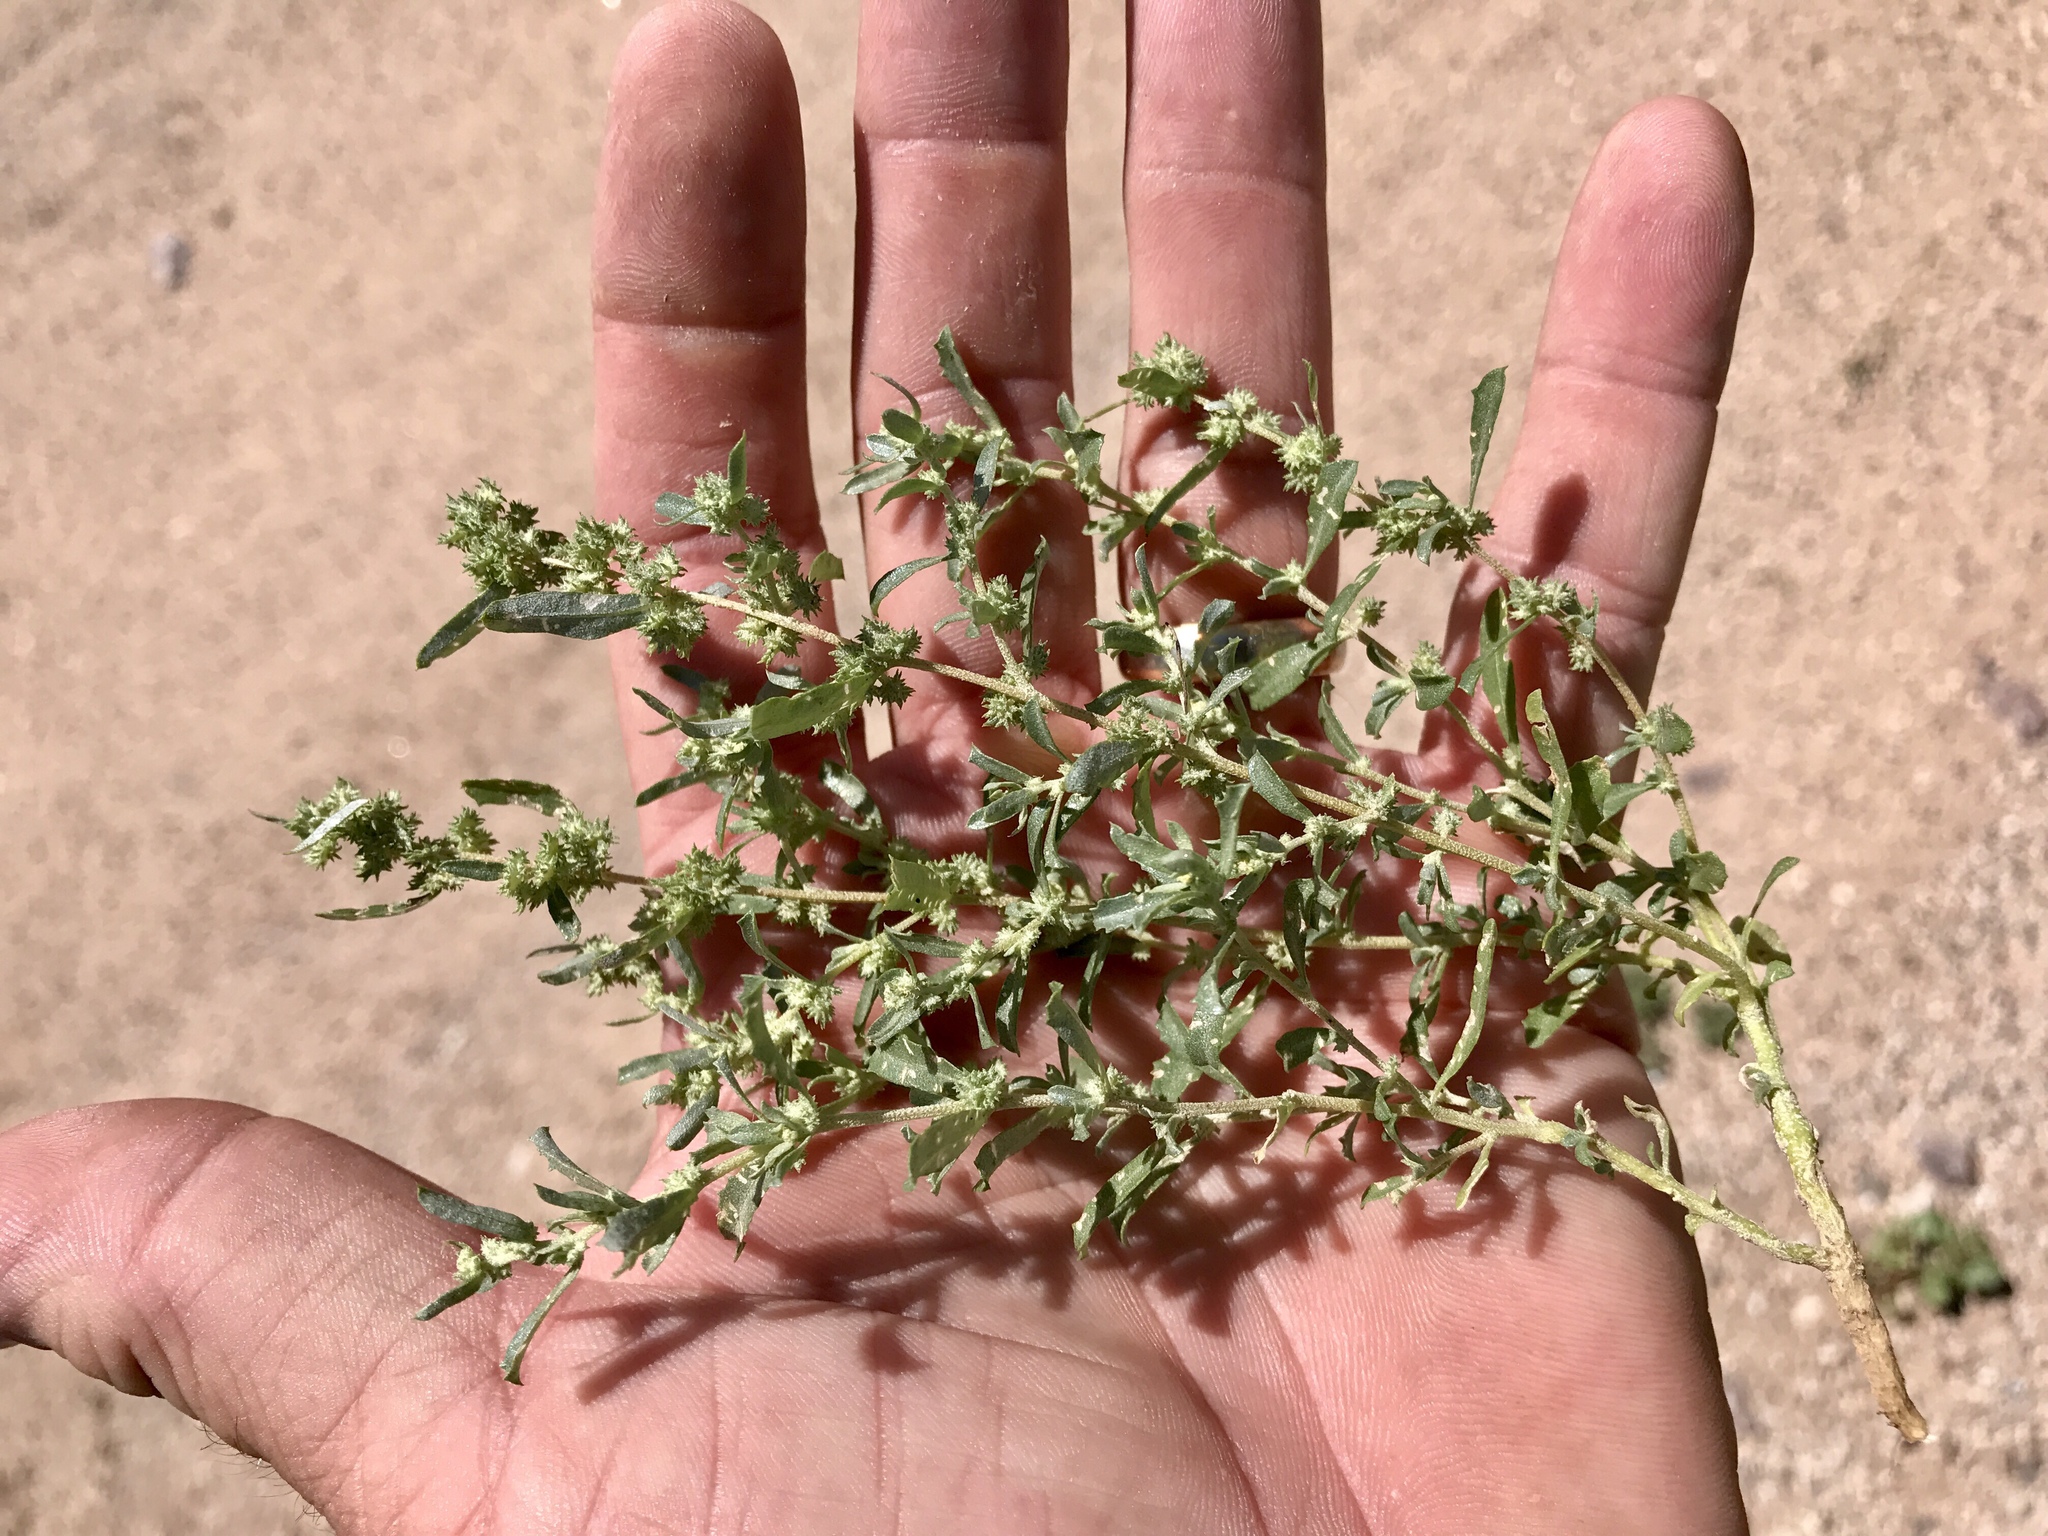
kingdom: Plantae
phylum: Tracheophyta
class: Magnoliopsida
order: Caryophyllales
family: Amaranthaceae
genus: Atriplex
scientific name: Atriplex elegans
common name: Wheelscale orach
